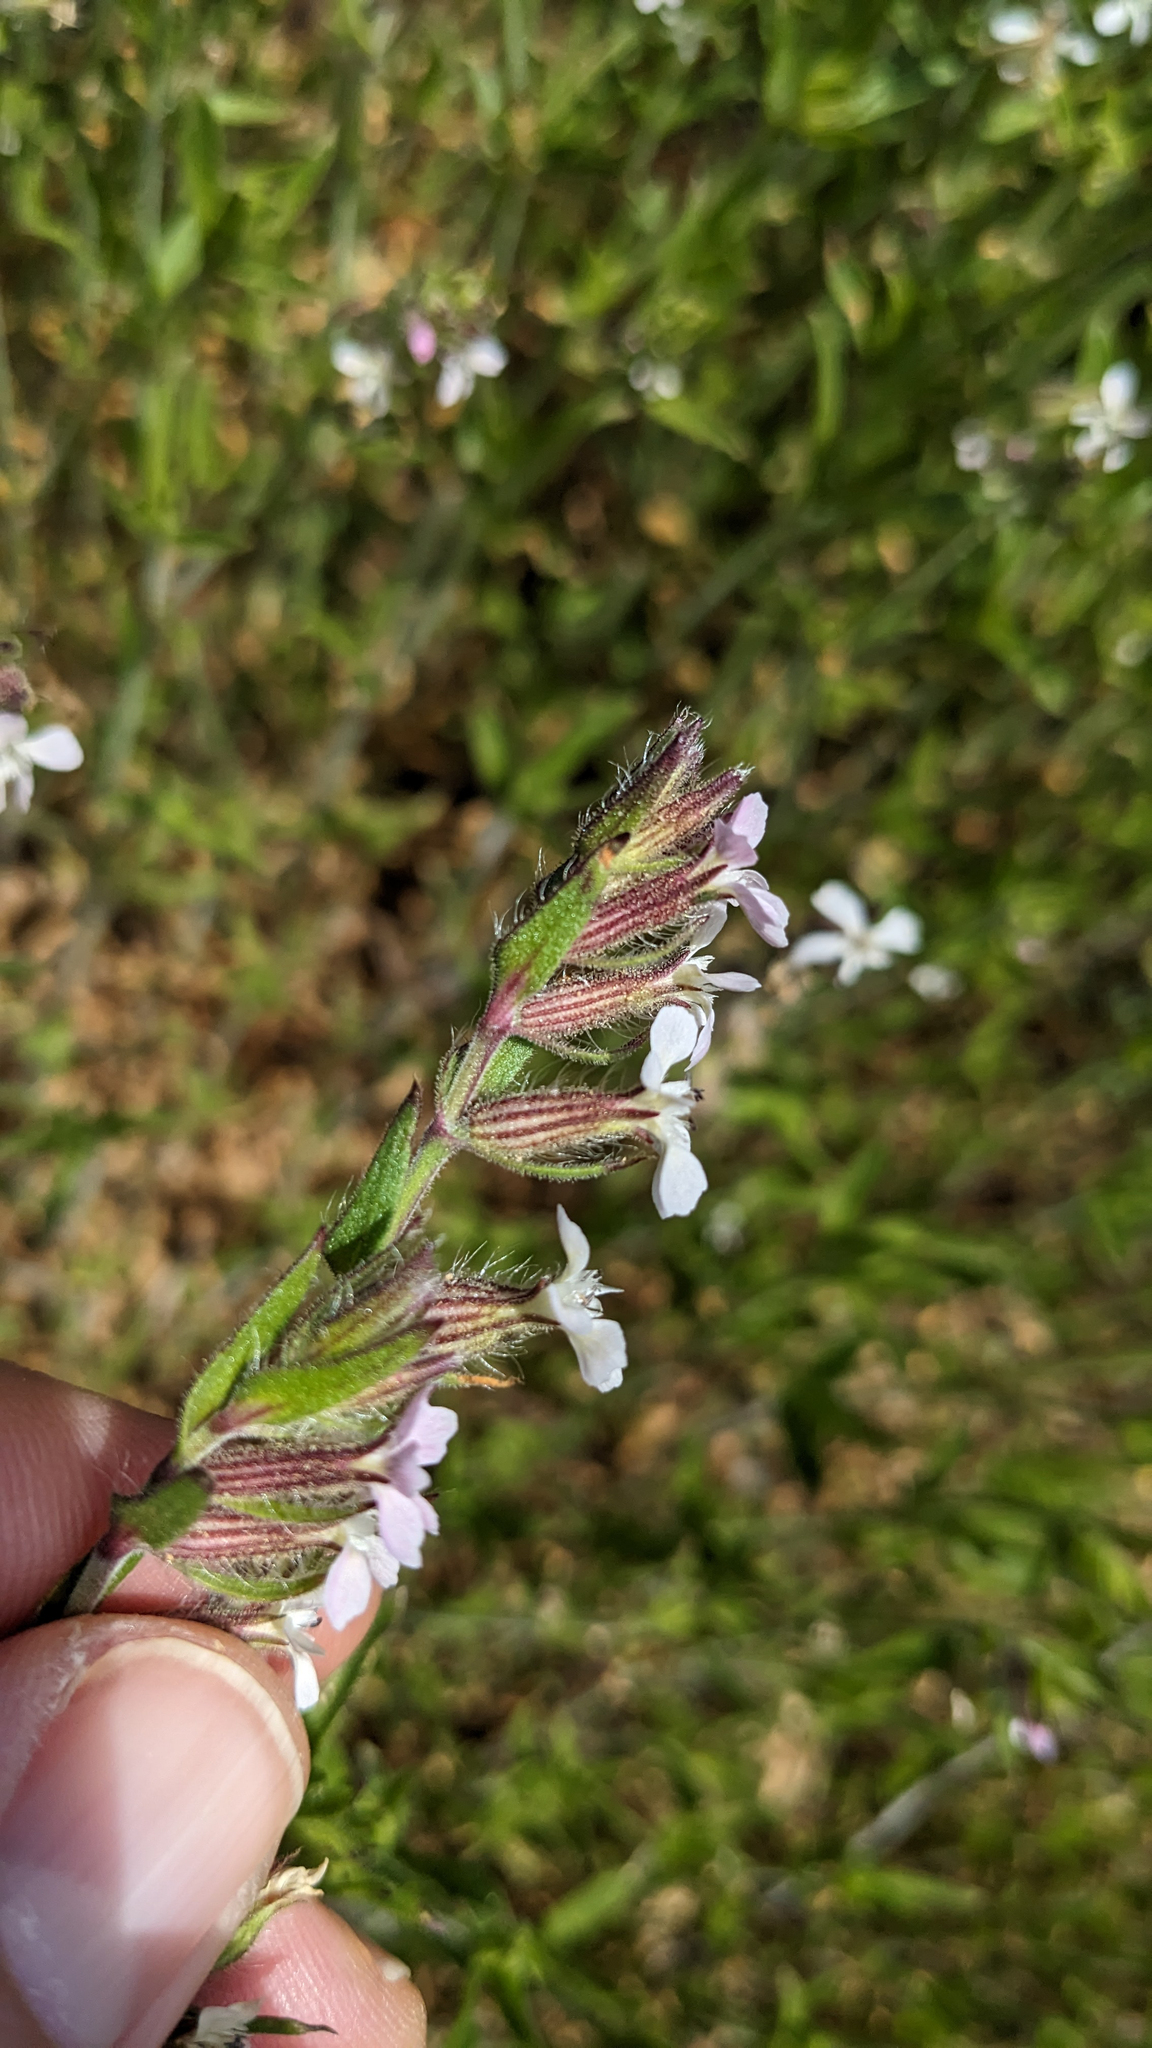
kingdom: Plantae
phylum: Tracheophyta
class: Magnoliopsida
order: Caryophyllales
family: Caryophyllaceae
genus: Silene
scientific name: Silene gallica
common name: Small-flowered catchfly
